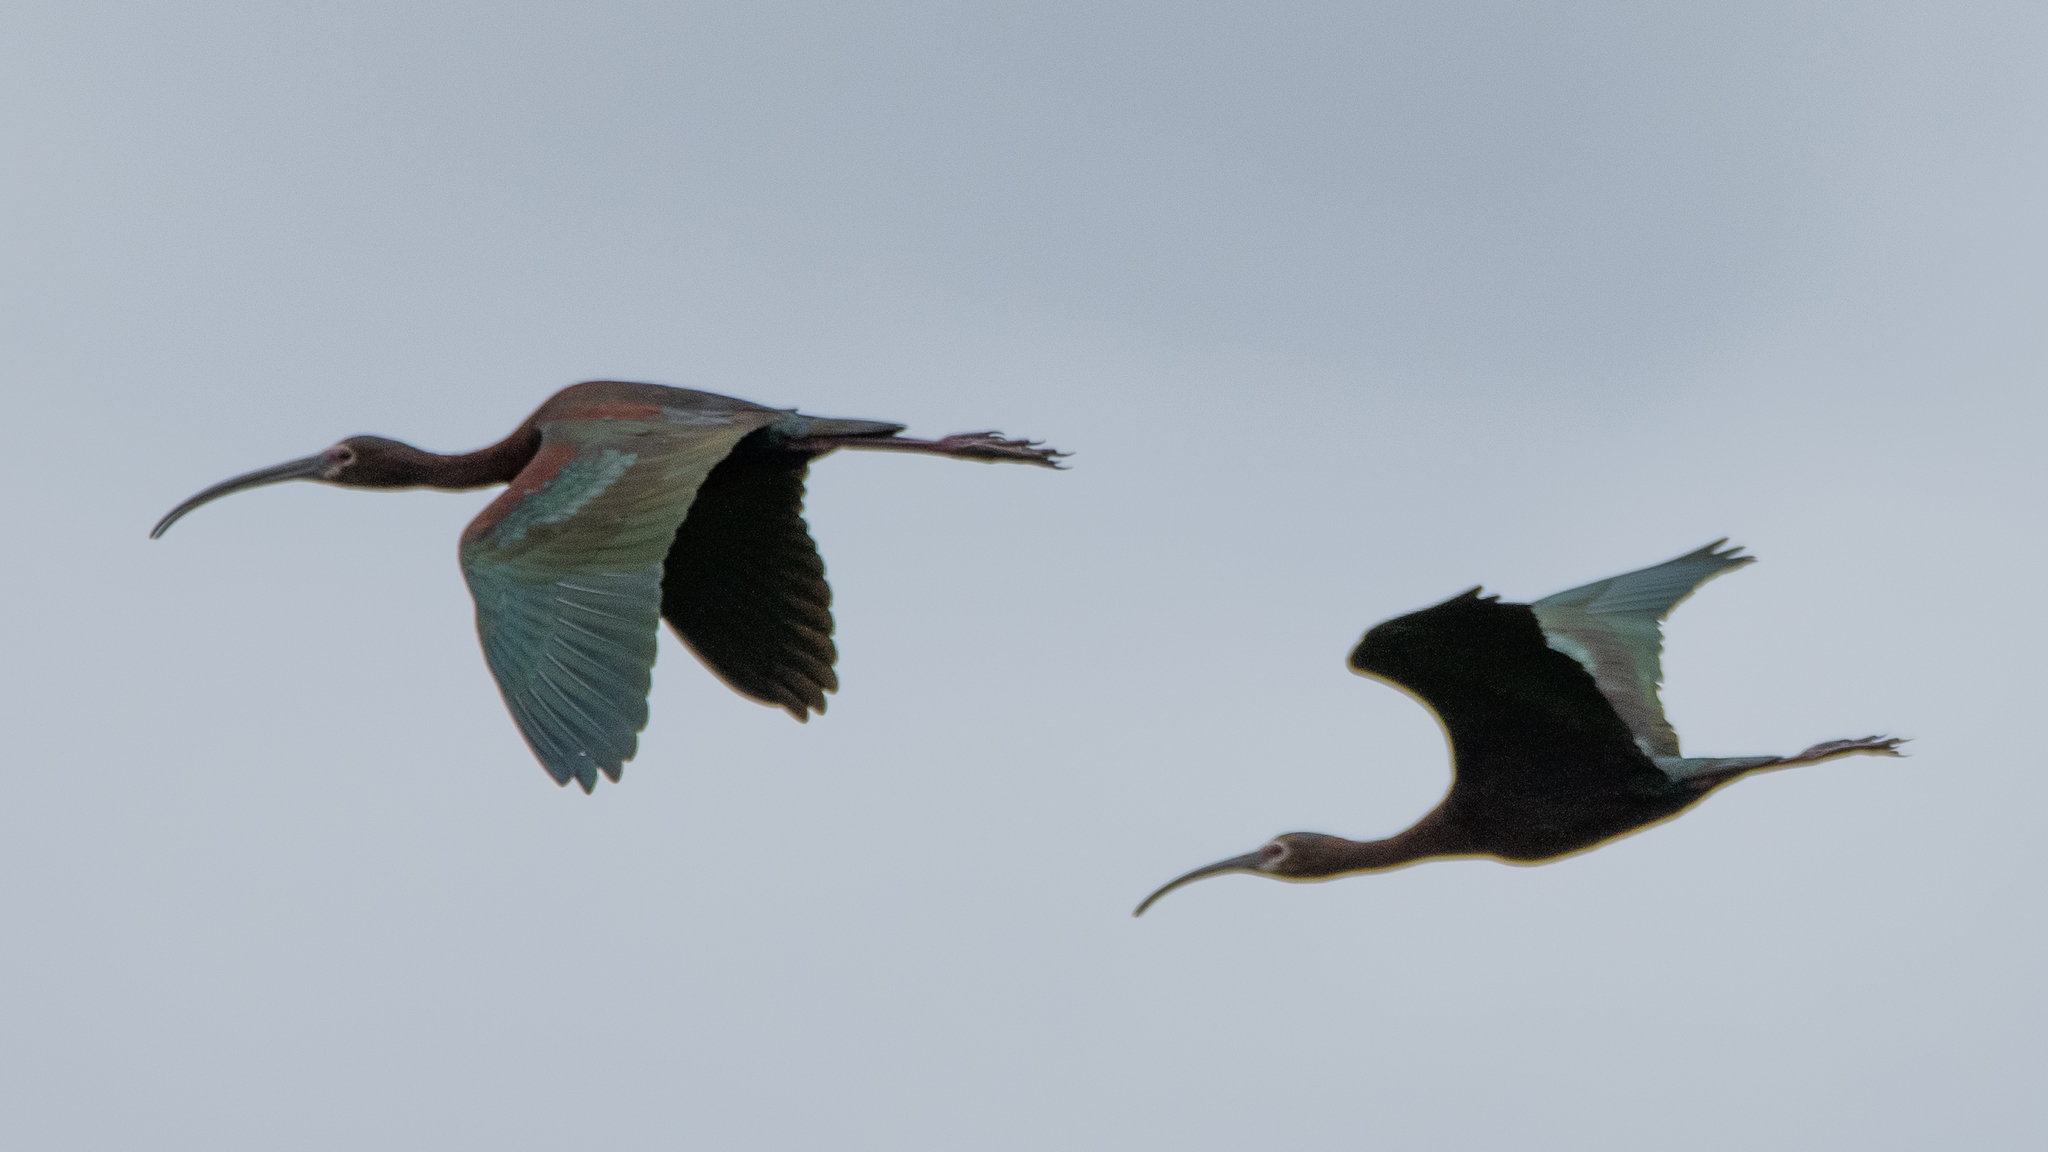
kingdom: Animalia
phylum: Chordata
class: Aves
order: Pelecaniformes
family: Threskiornithidae
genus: Plegadis
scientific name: Plegadis chihi
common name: White-faced ibis
